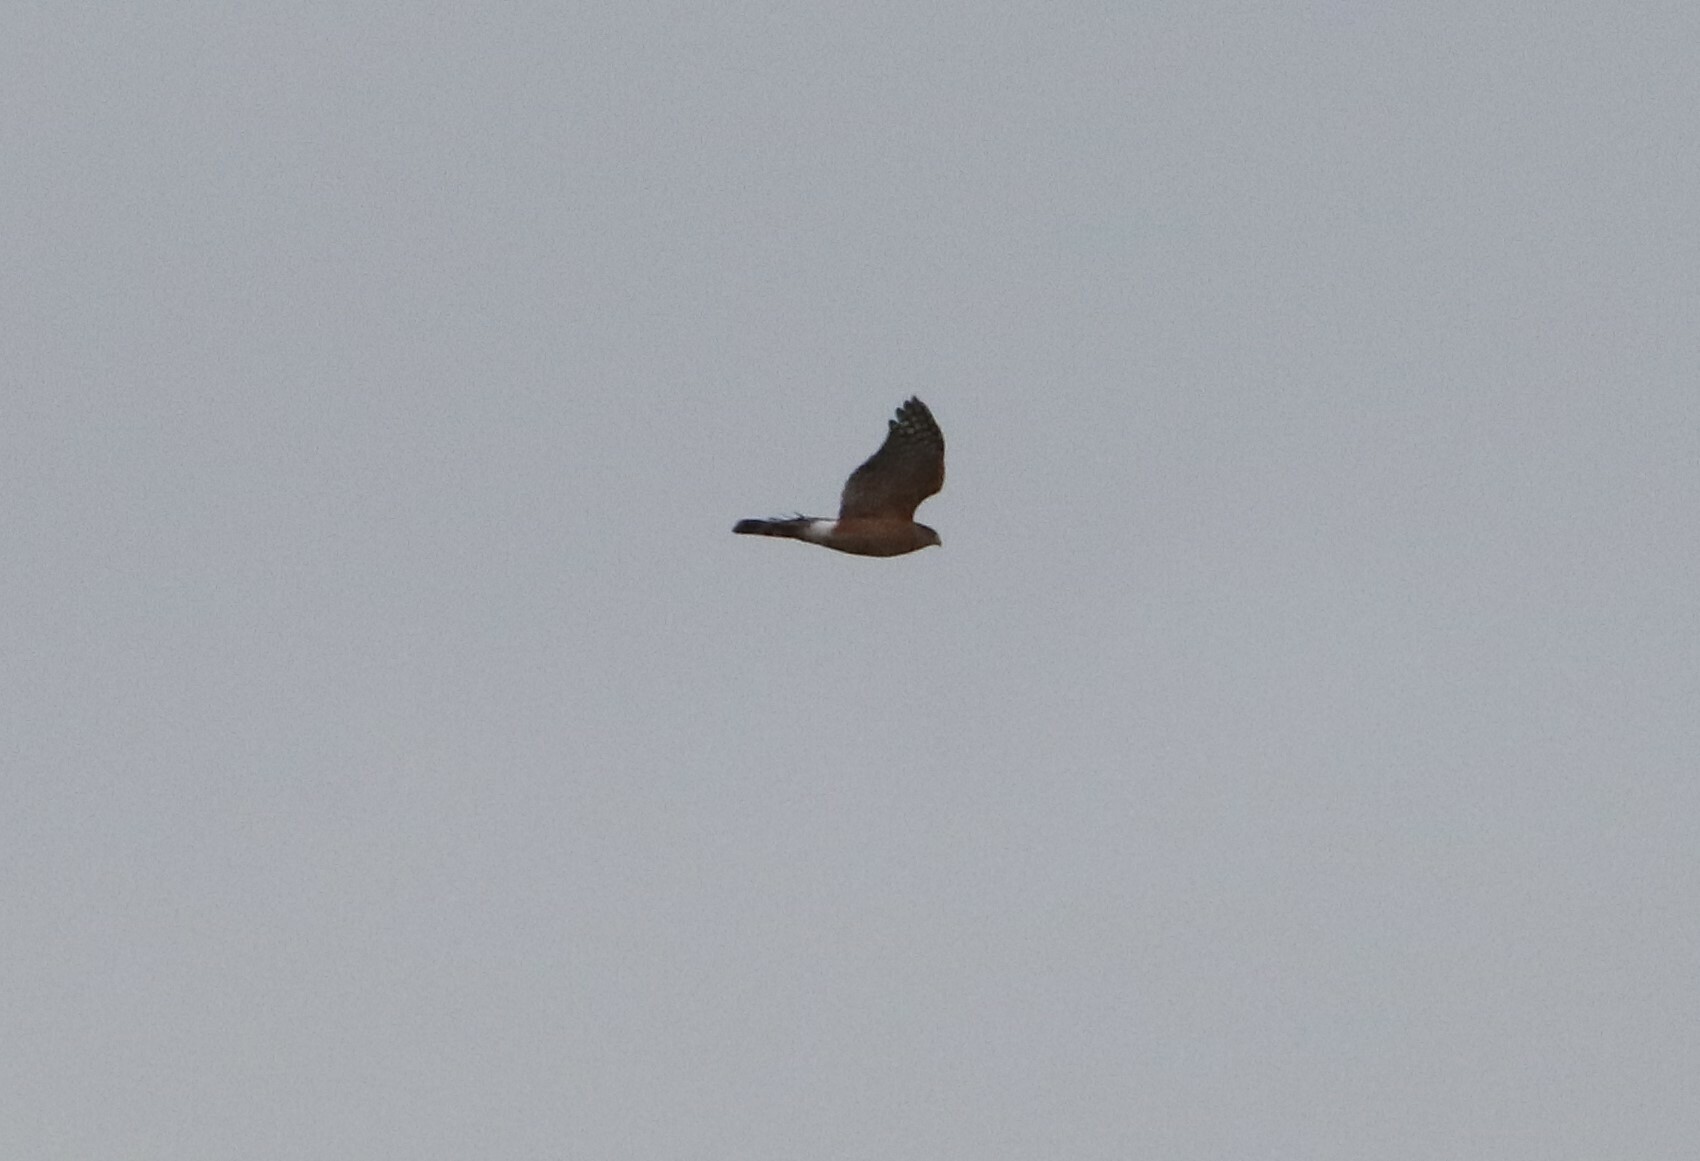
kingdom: Animalia
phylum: Chordata
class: Aves
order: Accipitriformes
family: Accipitridae
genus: Accipiter
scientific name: Accipiter cooperii
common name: Cooper's hawk
